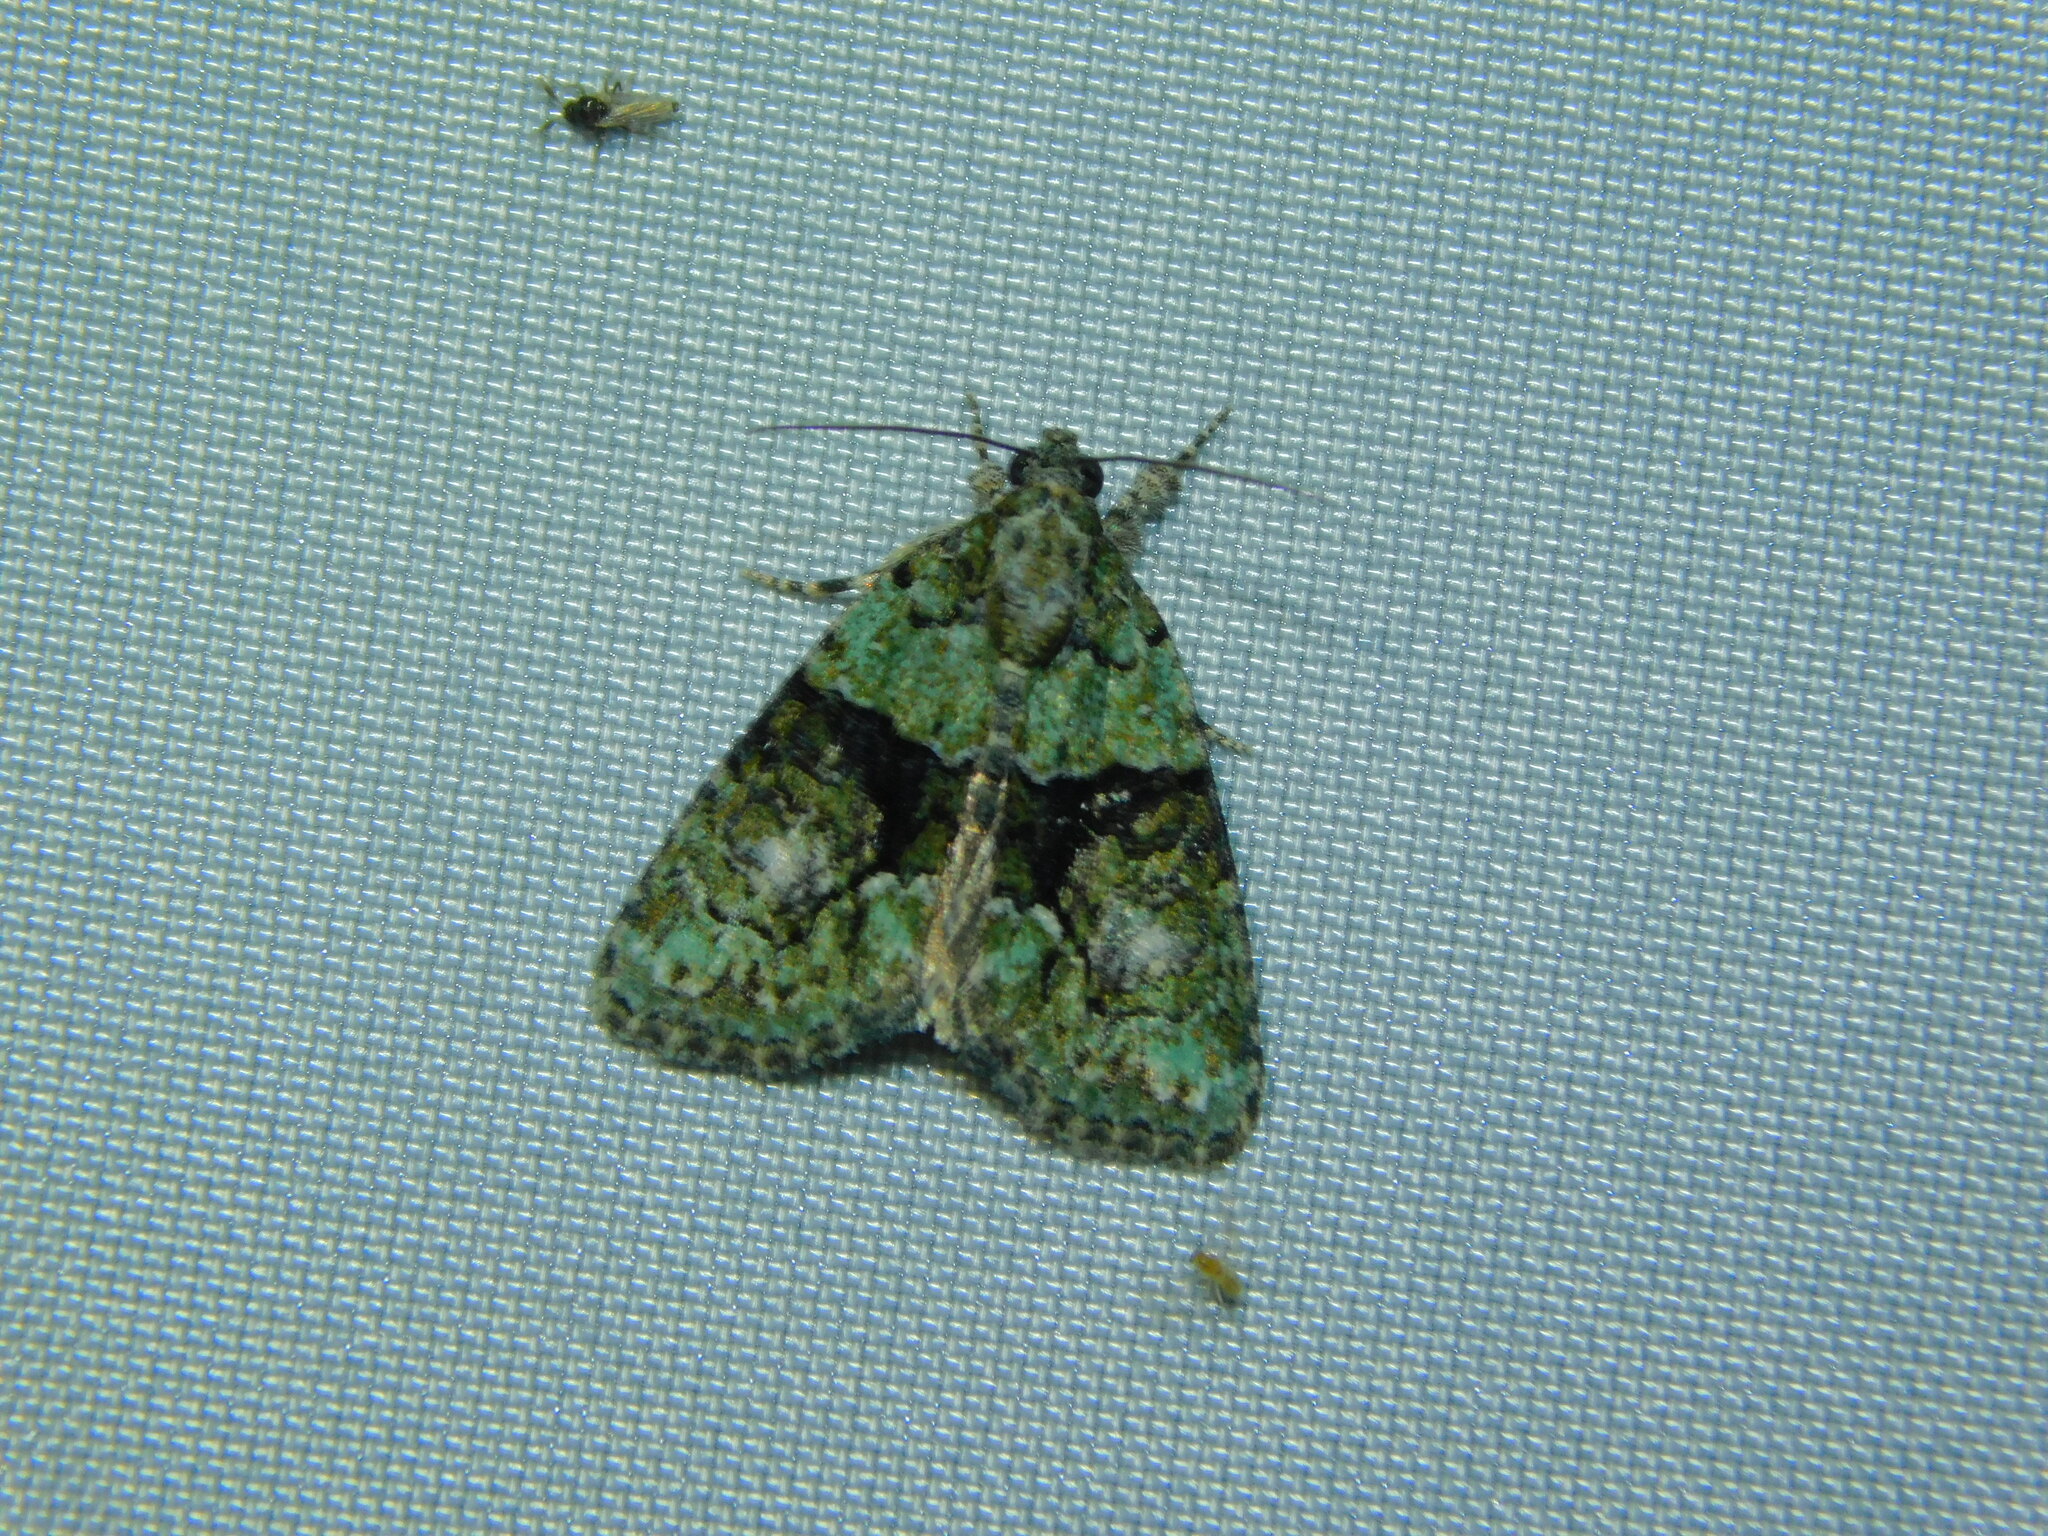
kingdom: Animalia
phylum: Arthropoda
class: Insecta
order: Lepidoptera
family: Noctuidae
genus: Cryphia
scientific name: Cryphia algae
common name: Tree-lichen beauty
